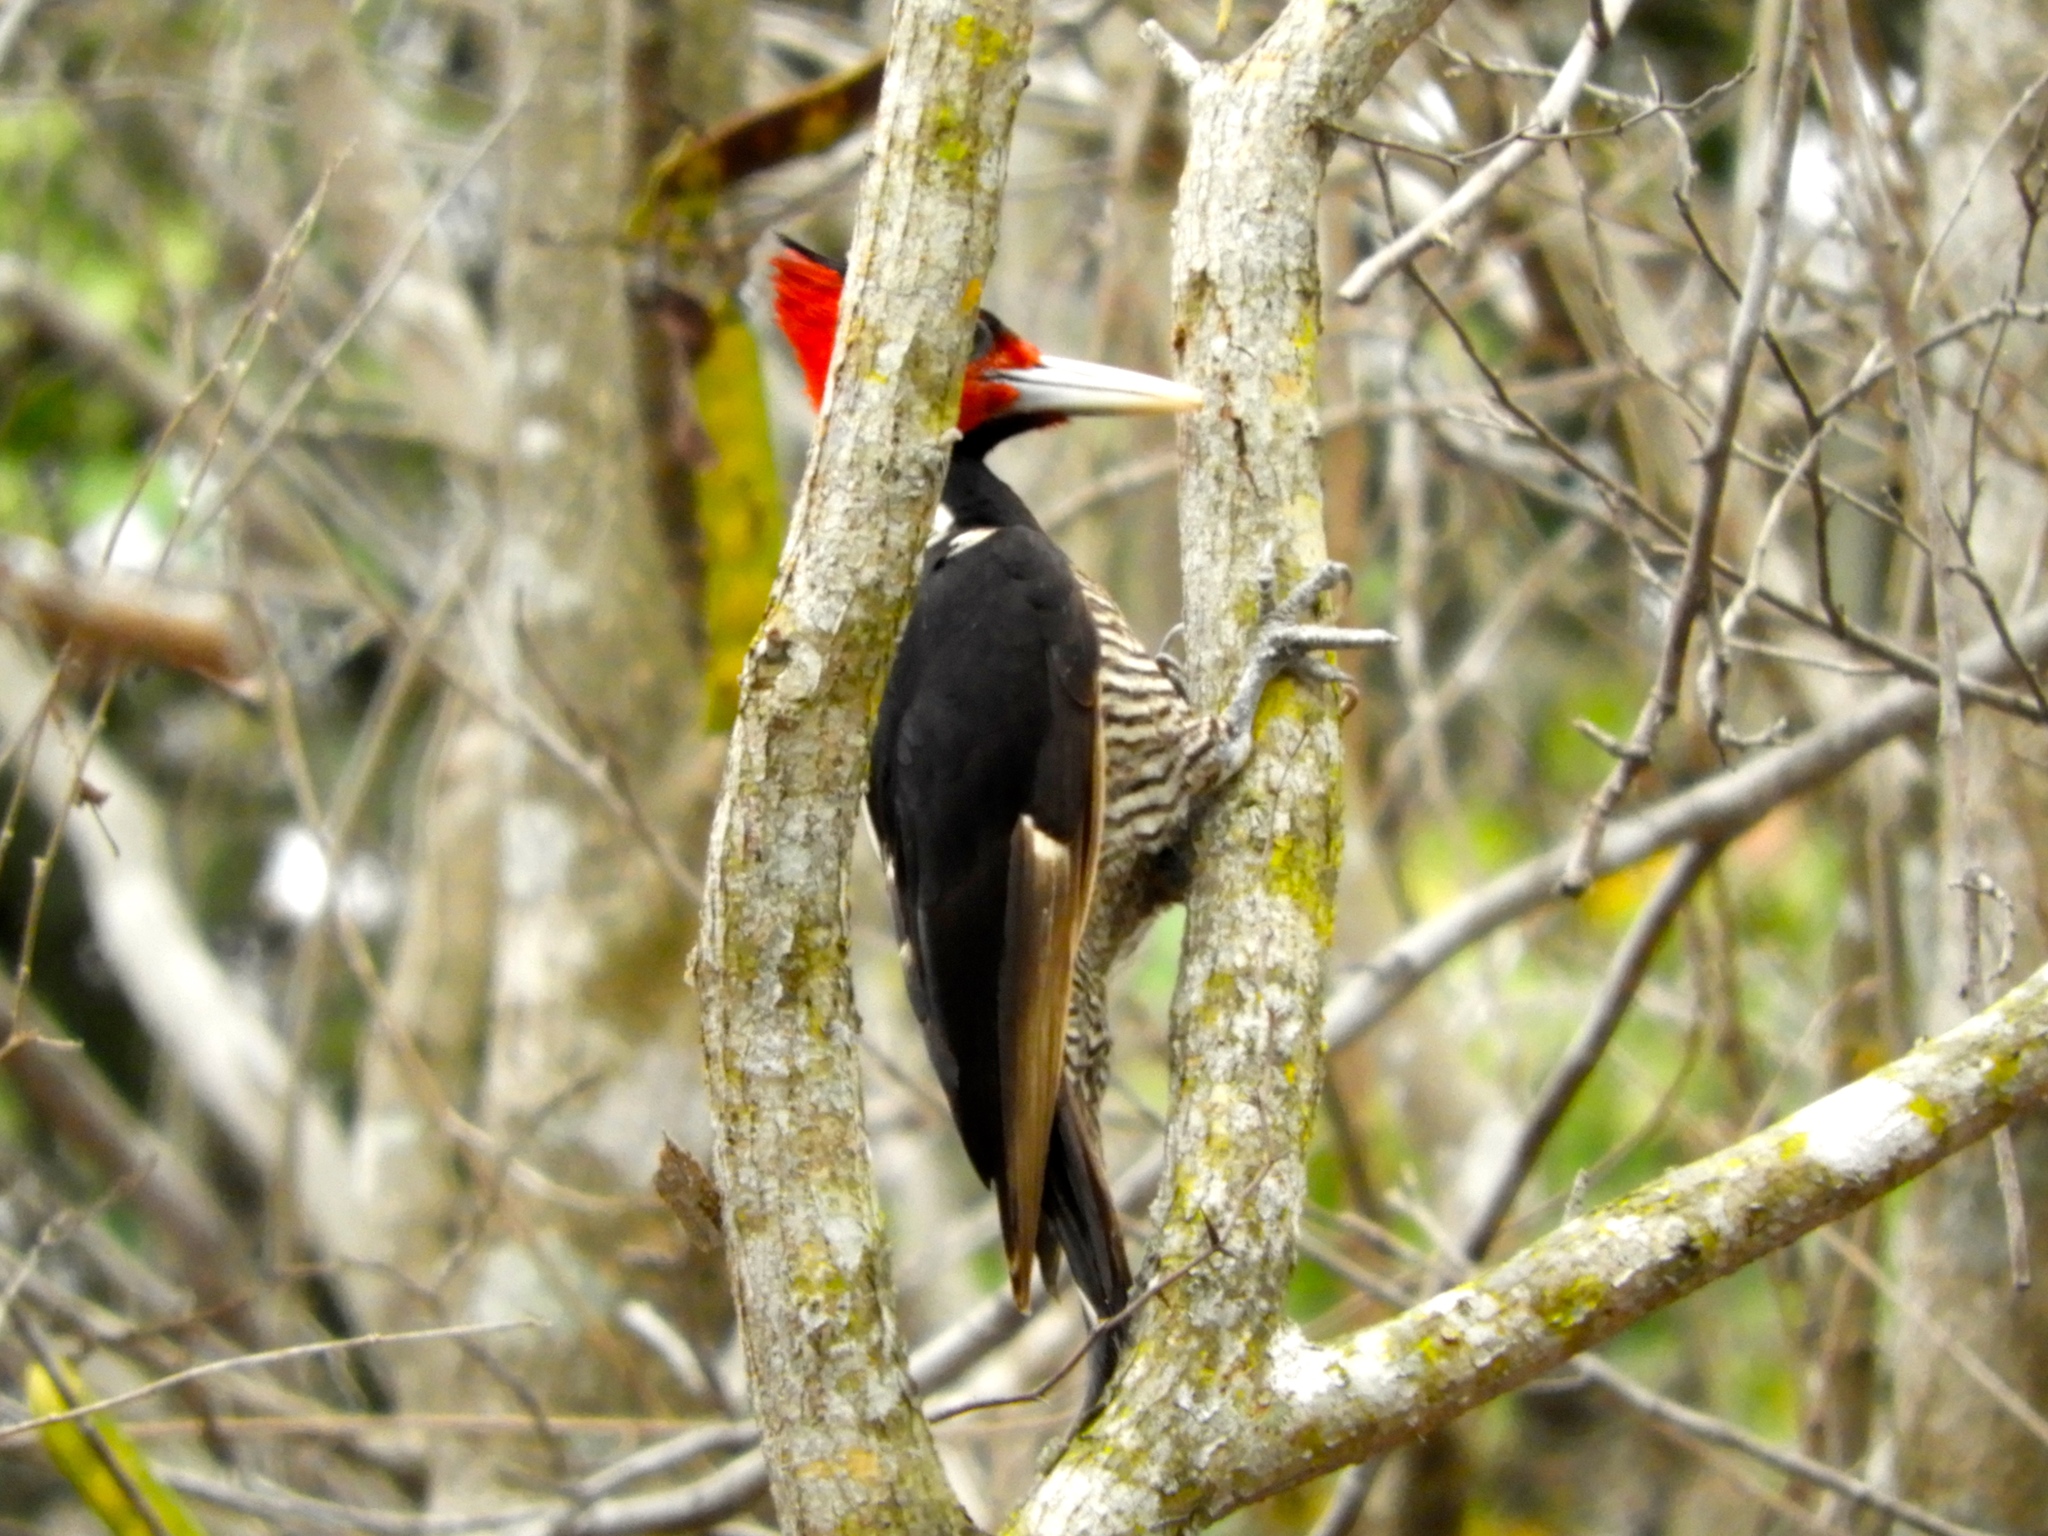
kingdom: Animalia
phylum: Chordata
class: Aves
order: Piciformes
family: Picidae
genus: Campephilus
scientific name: Campephilus guatemalensis
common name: Pale-billed woodpecker
